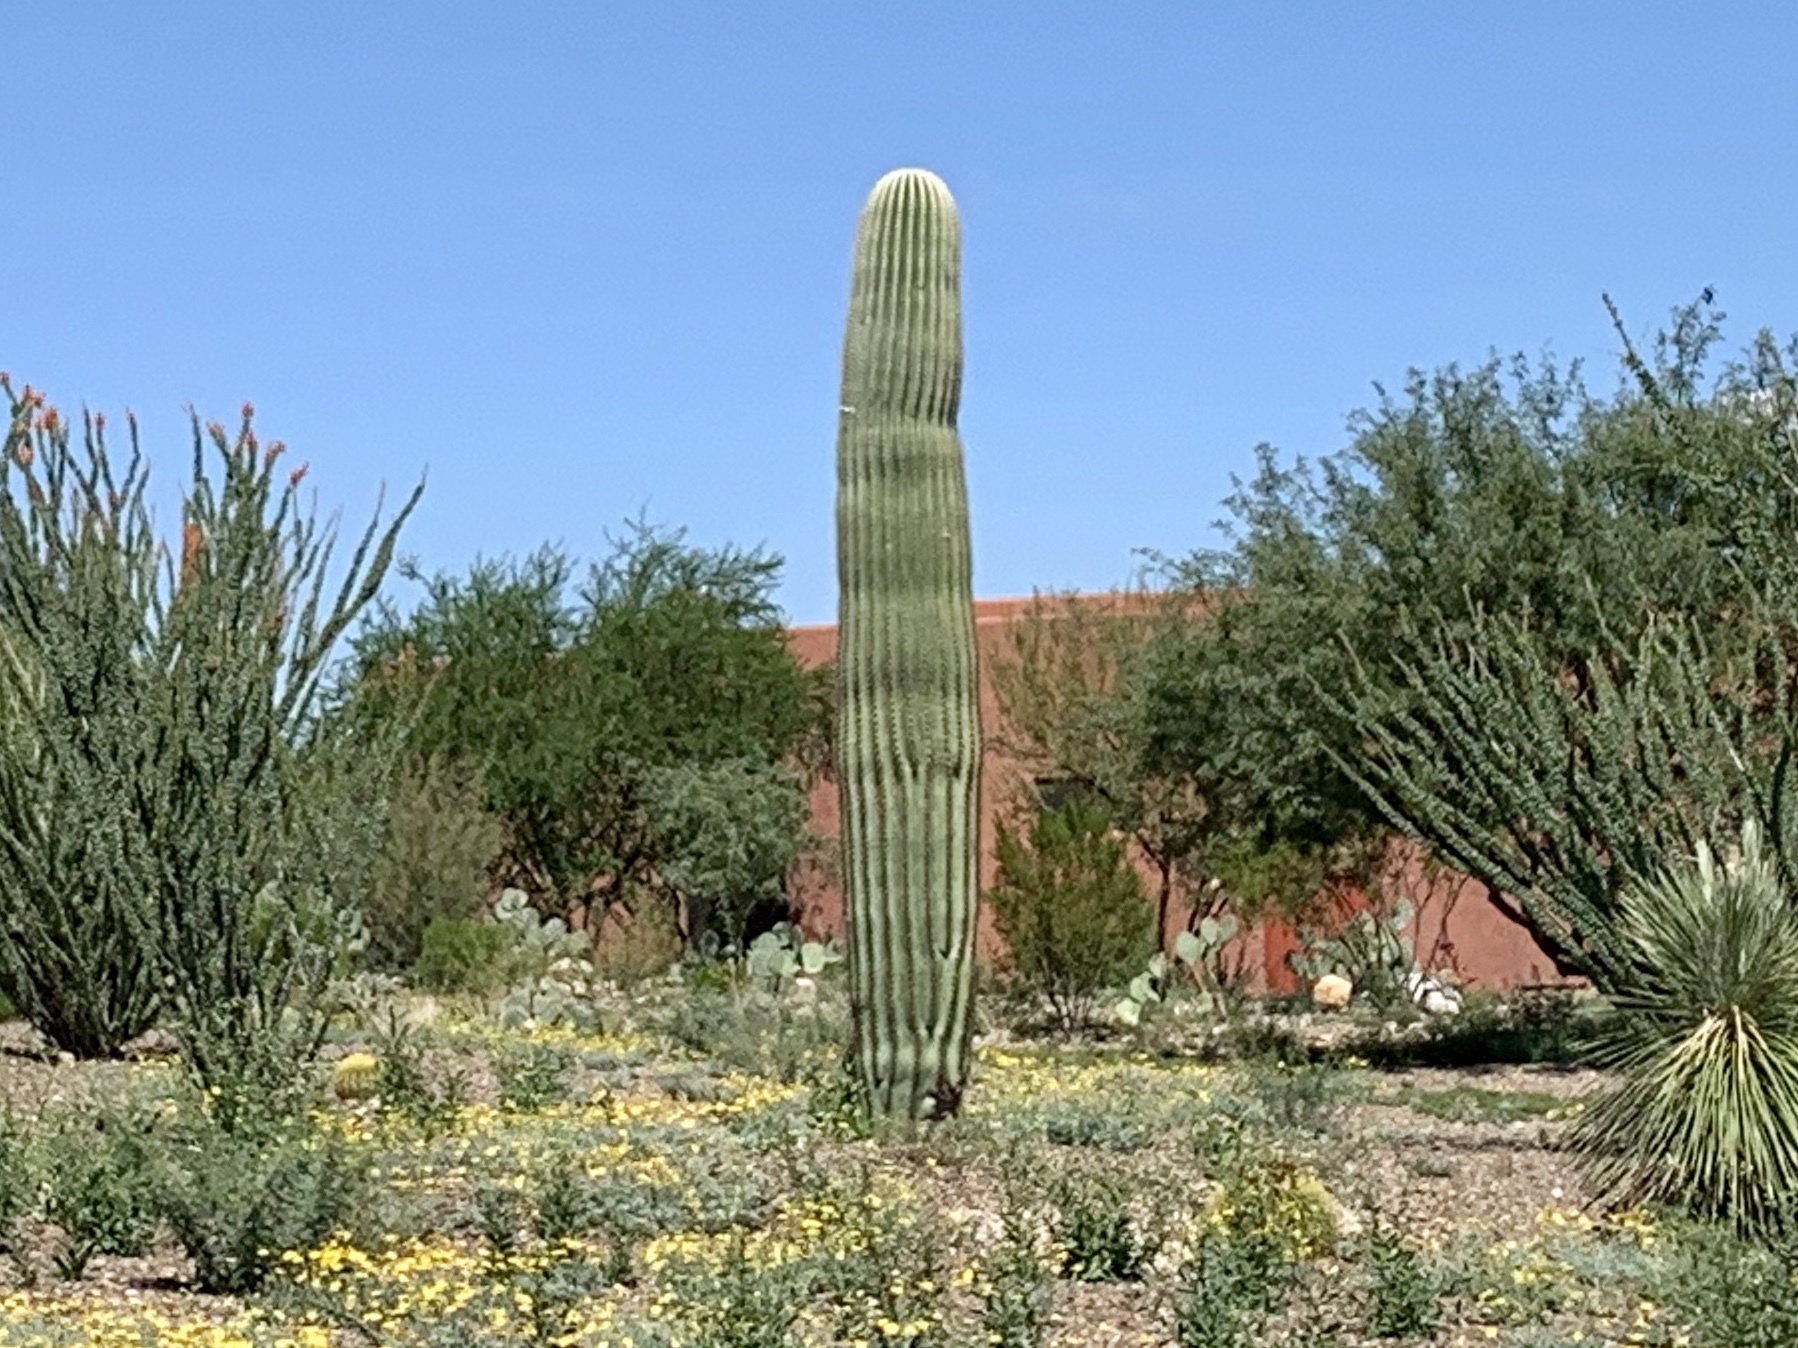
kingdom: Plantae
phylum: Tracheophyta
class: Magnoliopsida
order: Caryophyllales
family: Cactaceae
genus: Carnegiea
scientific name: Carnegiea gigantea
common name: Saguaro
